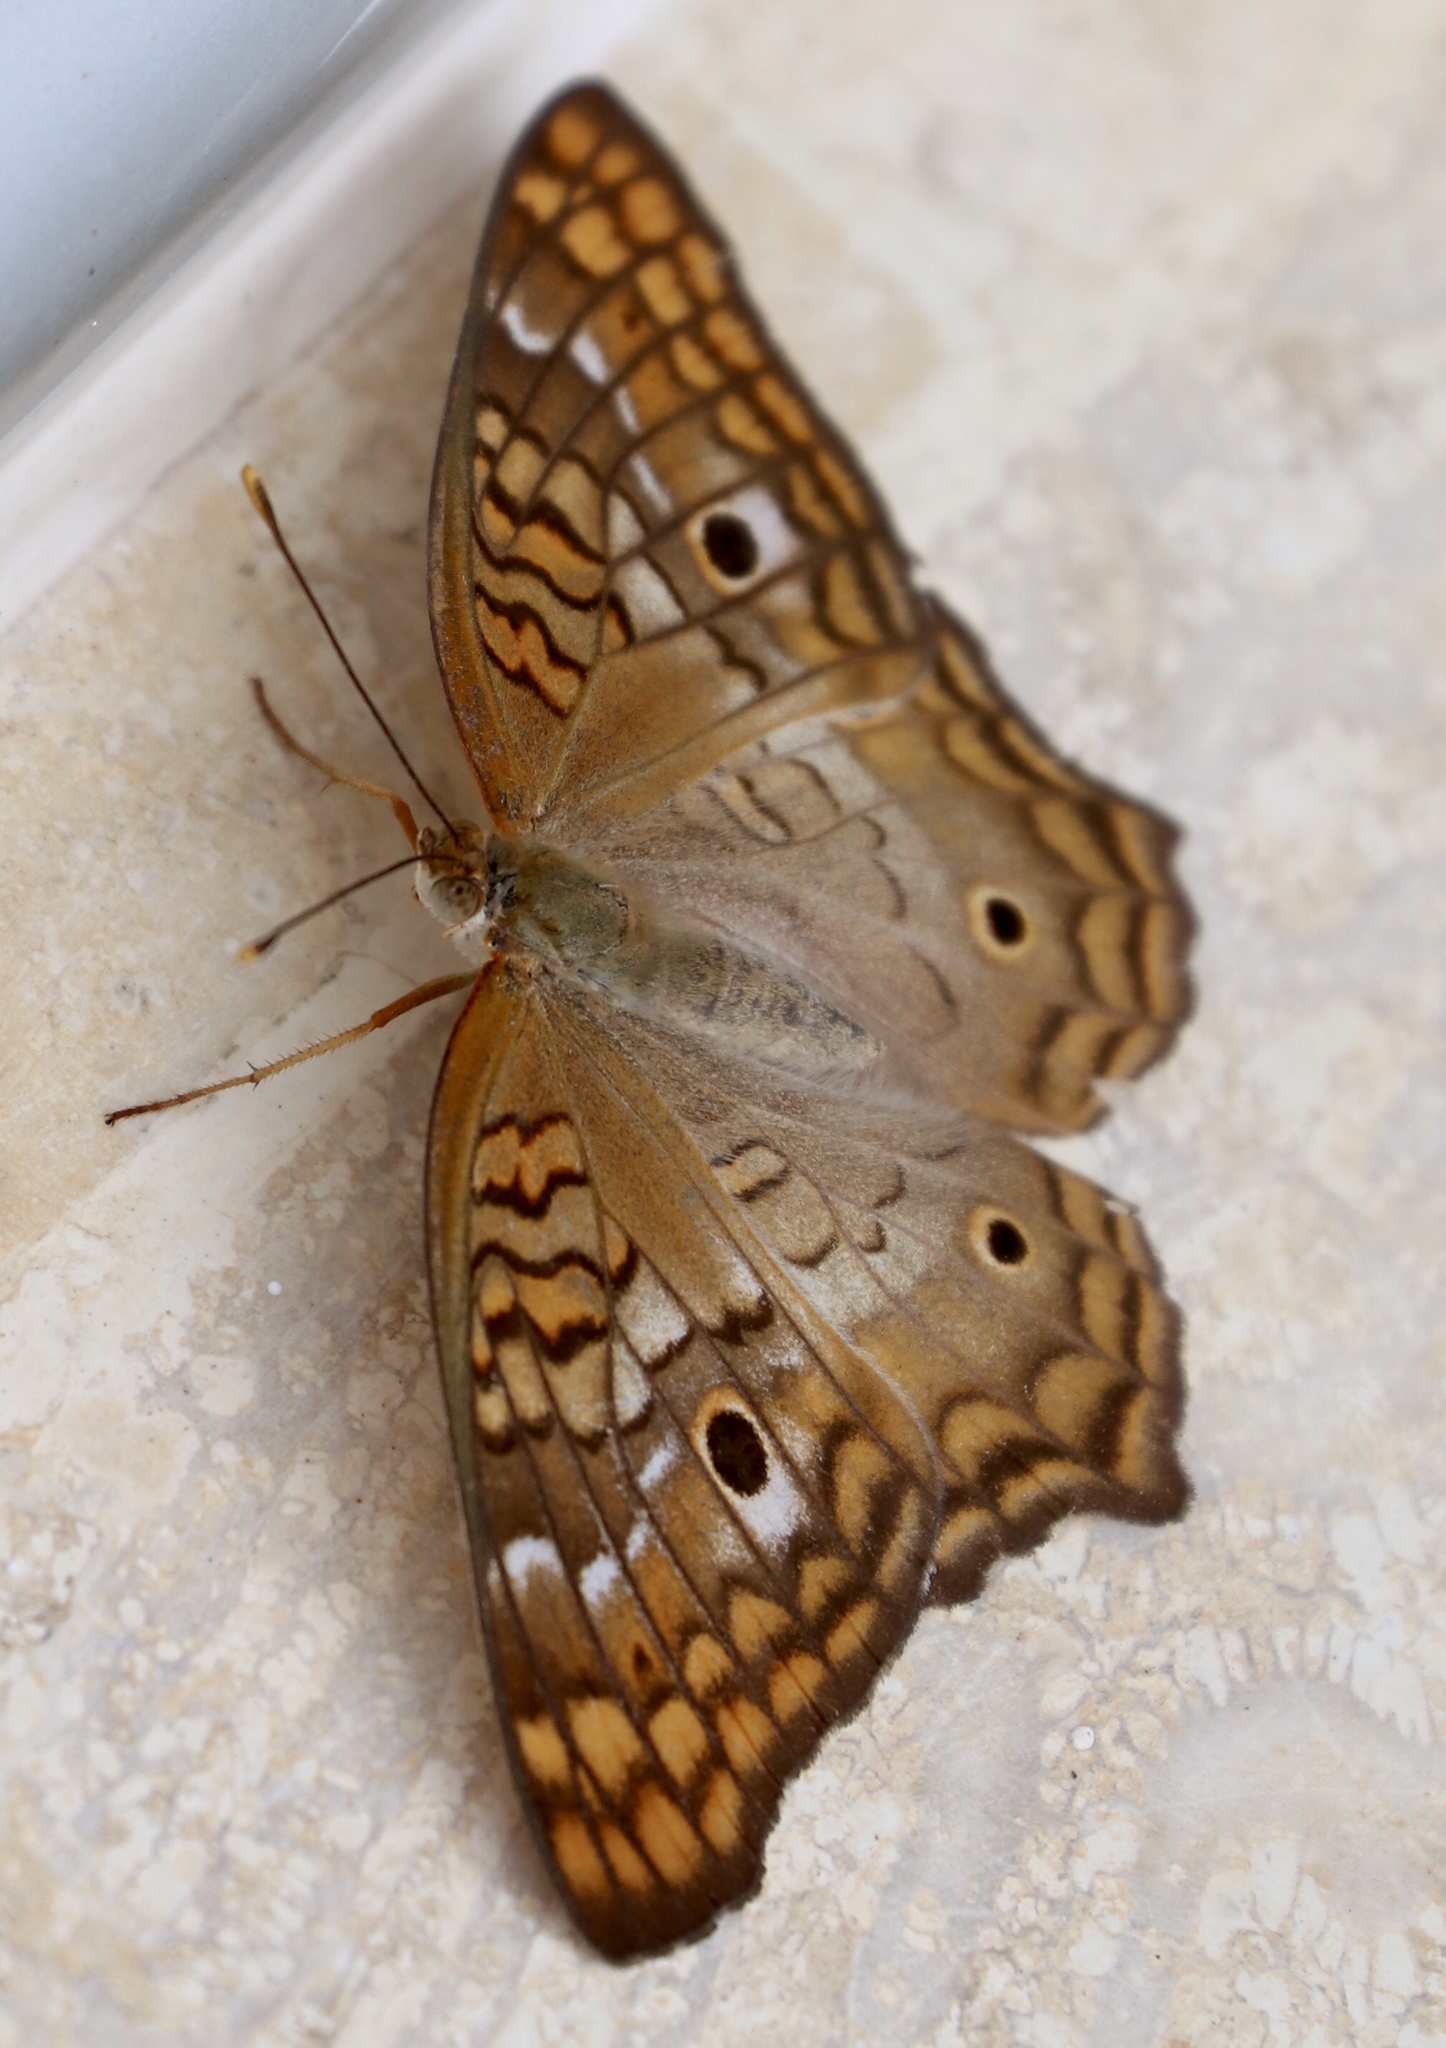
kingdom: Animalia
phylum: Arthropoda
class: Insecta
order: Lepidoptera
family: Nymphalidae
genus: Anartia
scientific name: Anartia jatrophae
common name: White peacock
